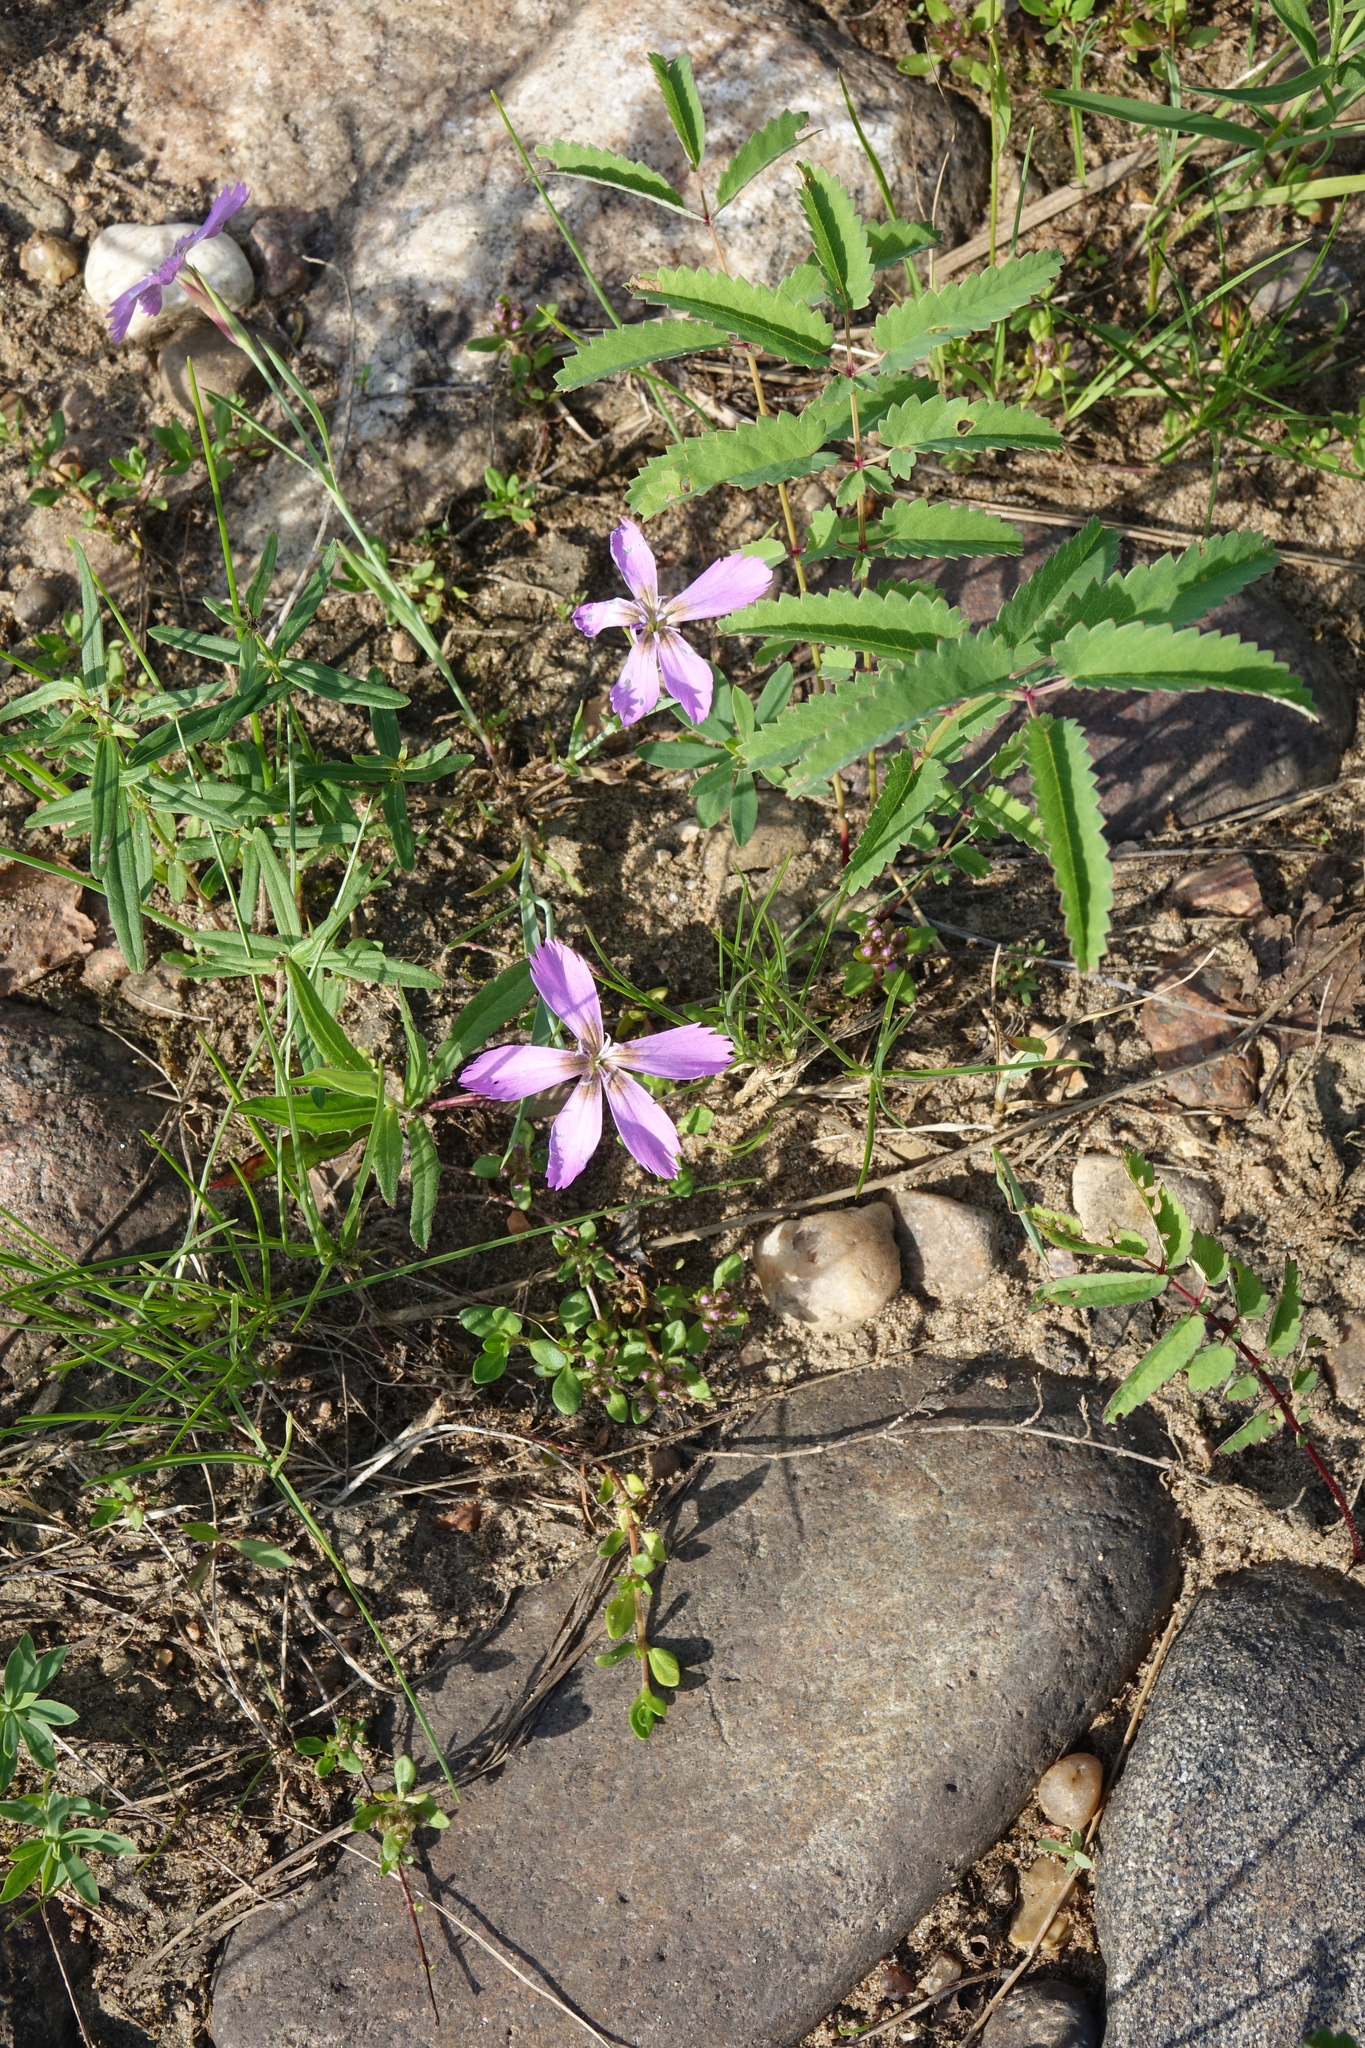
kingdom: Plantae
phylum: Tracheophyta
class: Magnoliopsida
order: Caryophyllales
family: Caryophyllaceae
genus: Dianthus
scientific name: Dianthus repens
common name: Northern pink
